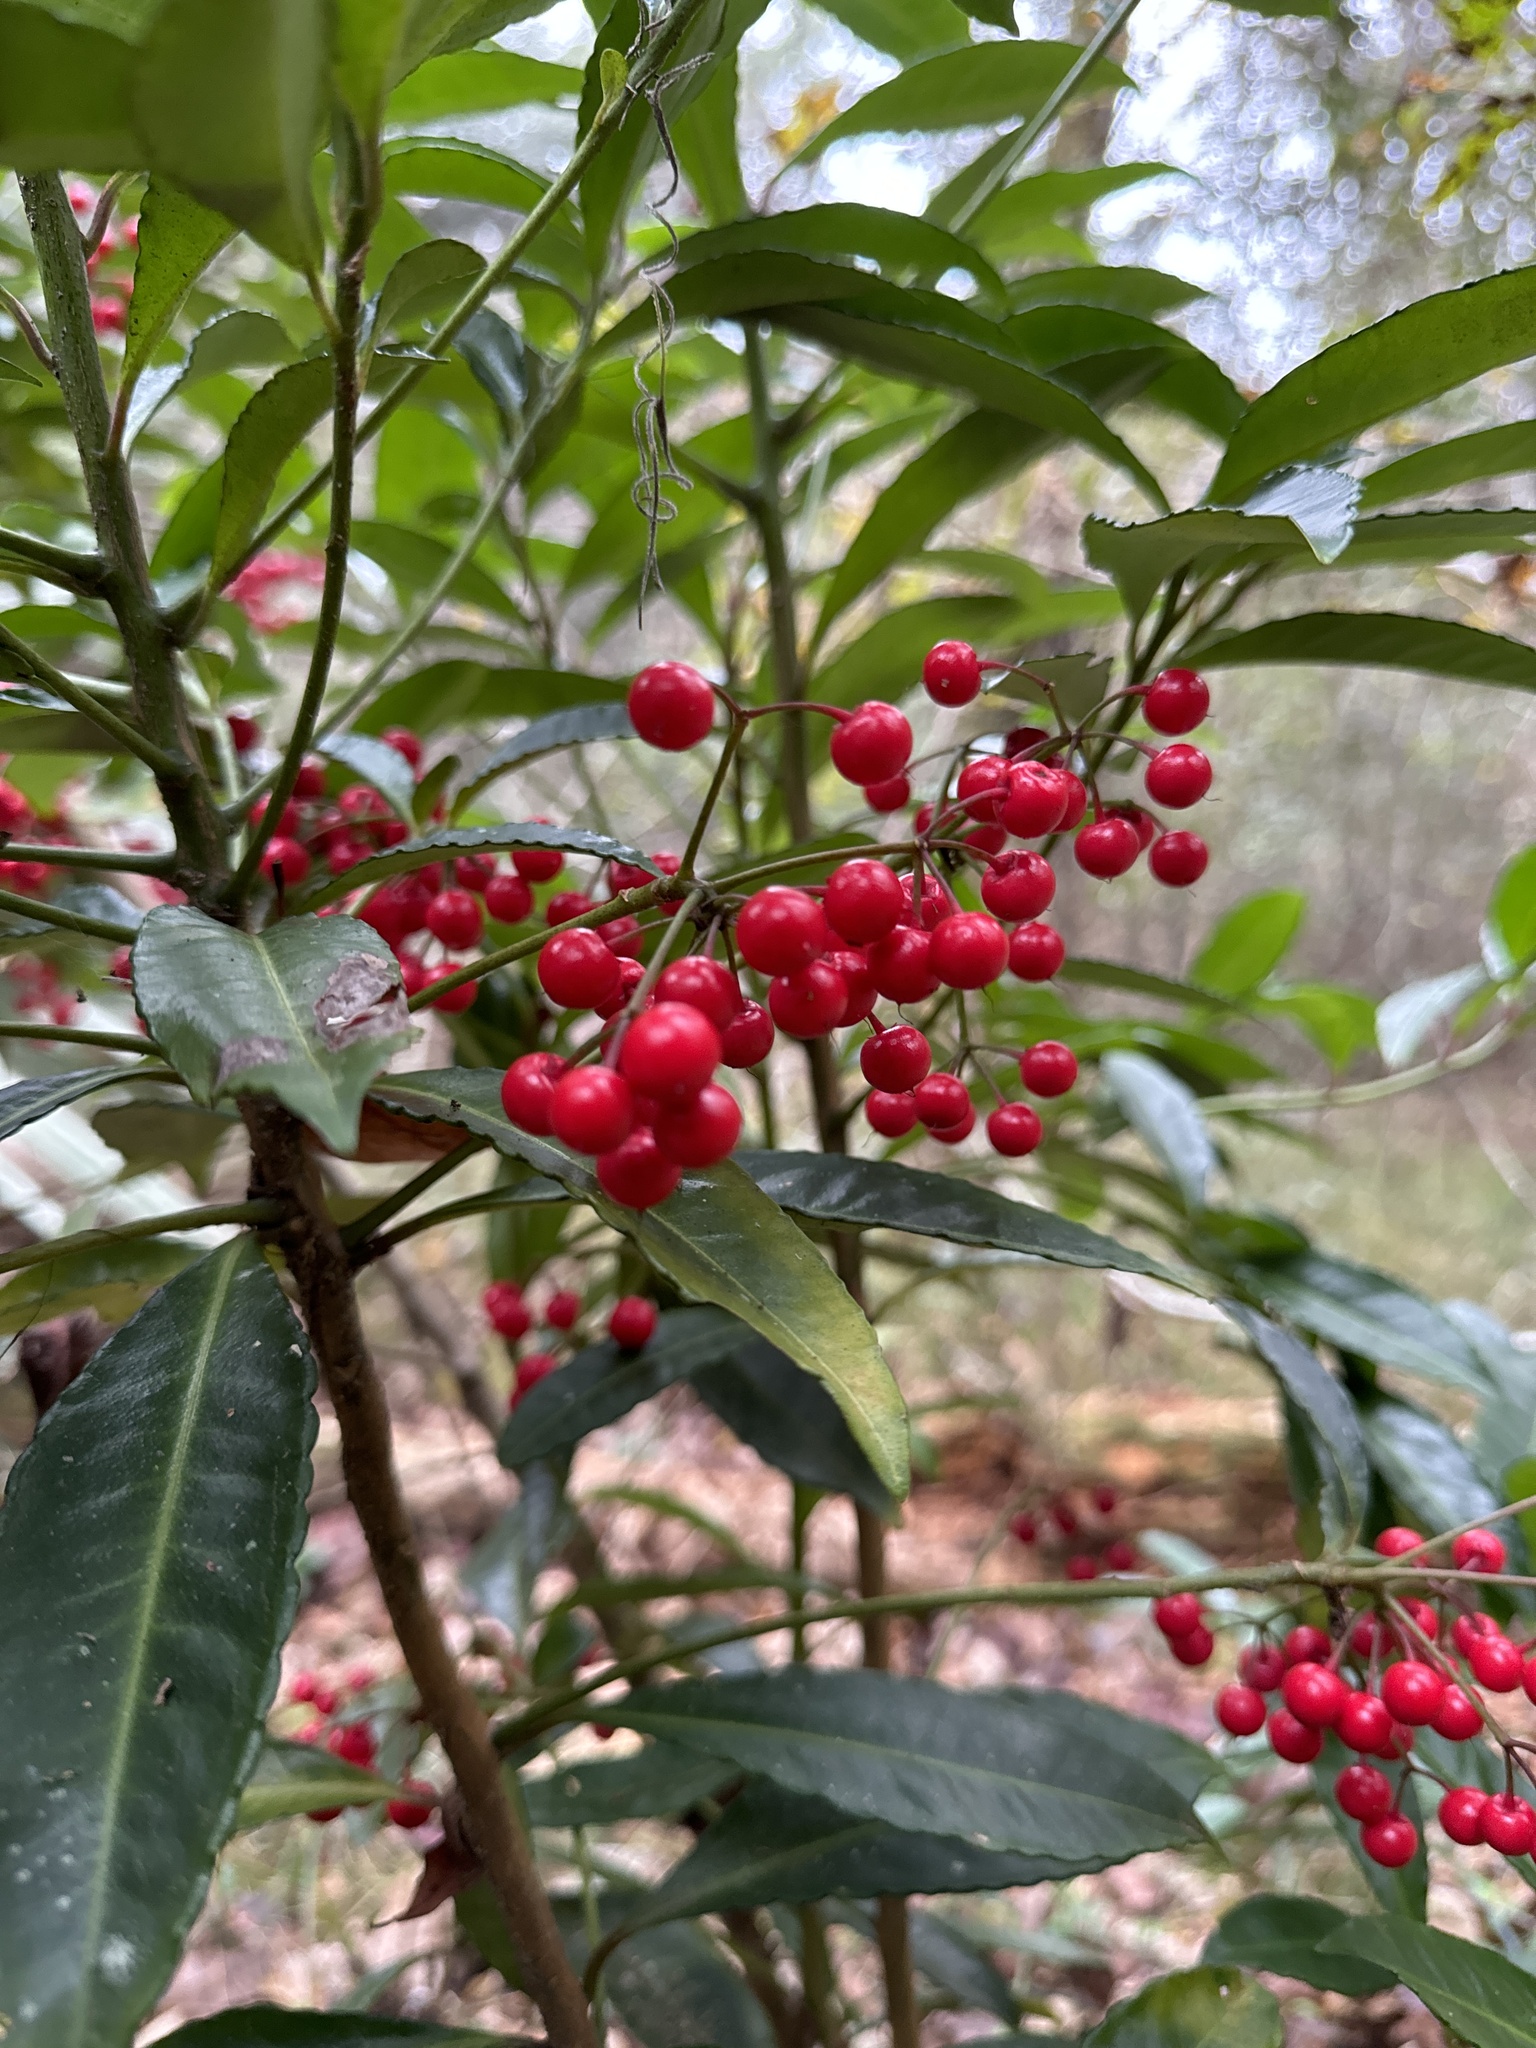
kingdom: Plantae
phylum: Tracheophyta
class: Magnoliopsida
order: Ericales
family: Primulaceae
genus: Ardisia
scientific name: Ardisia crenata
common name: Hen's eyes
